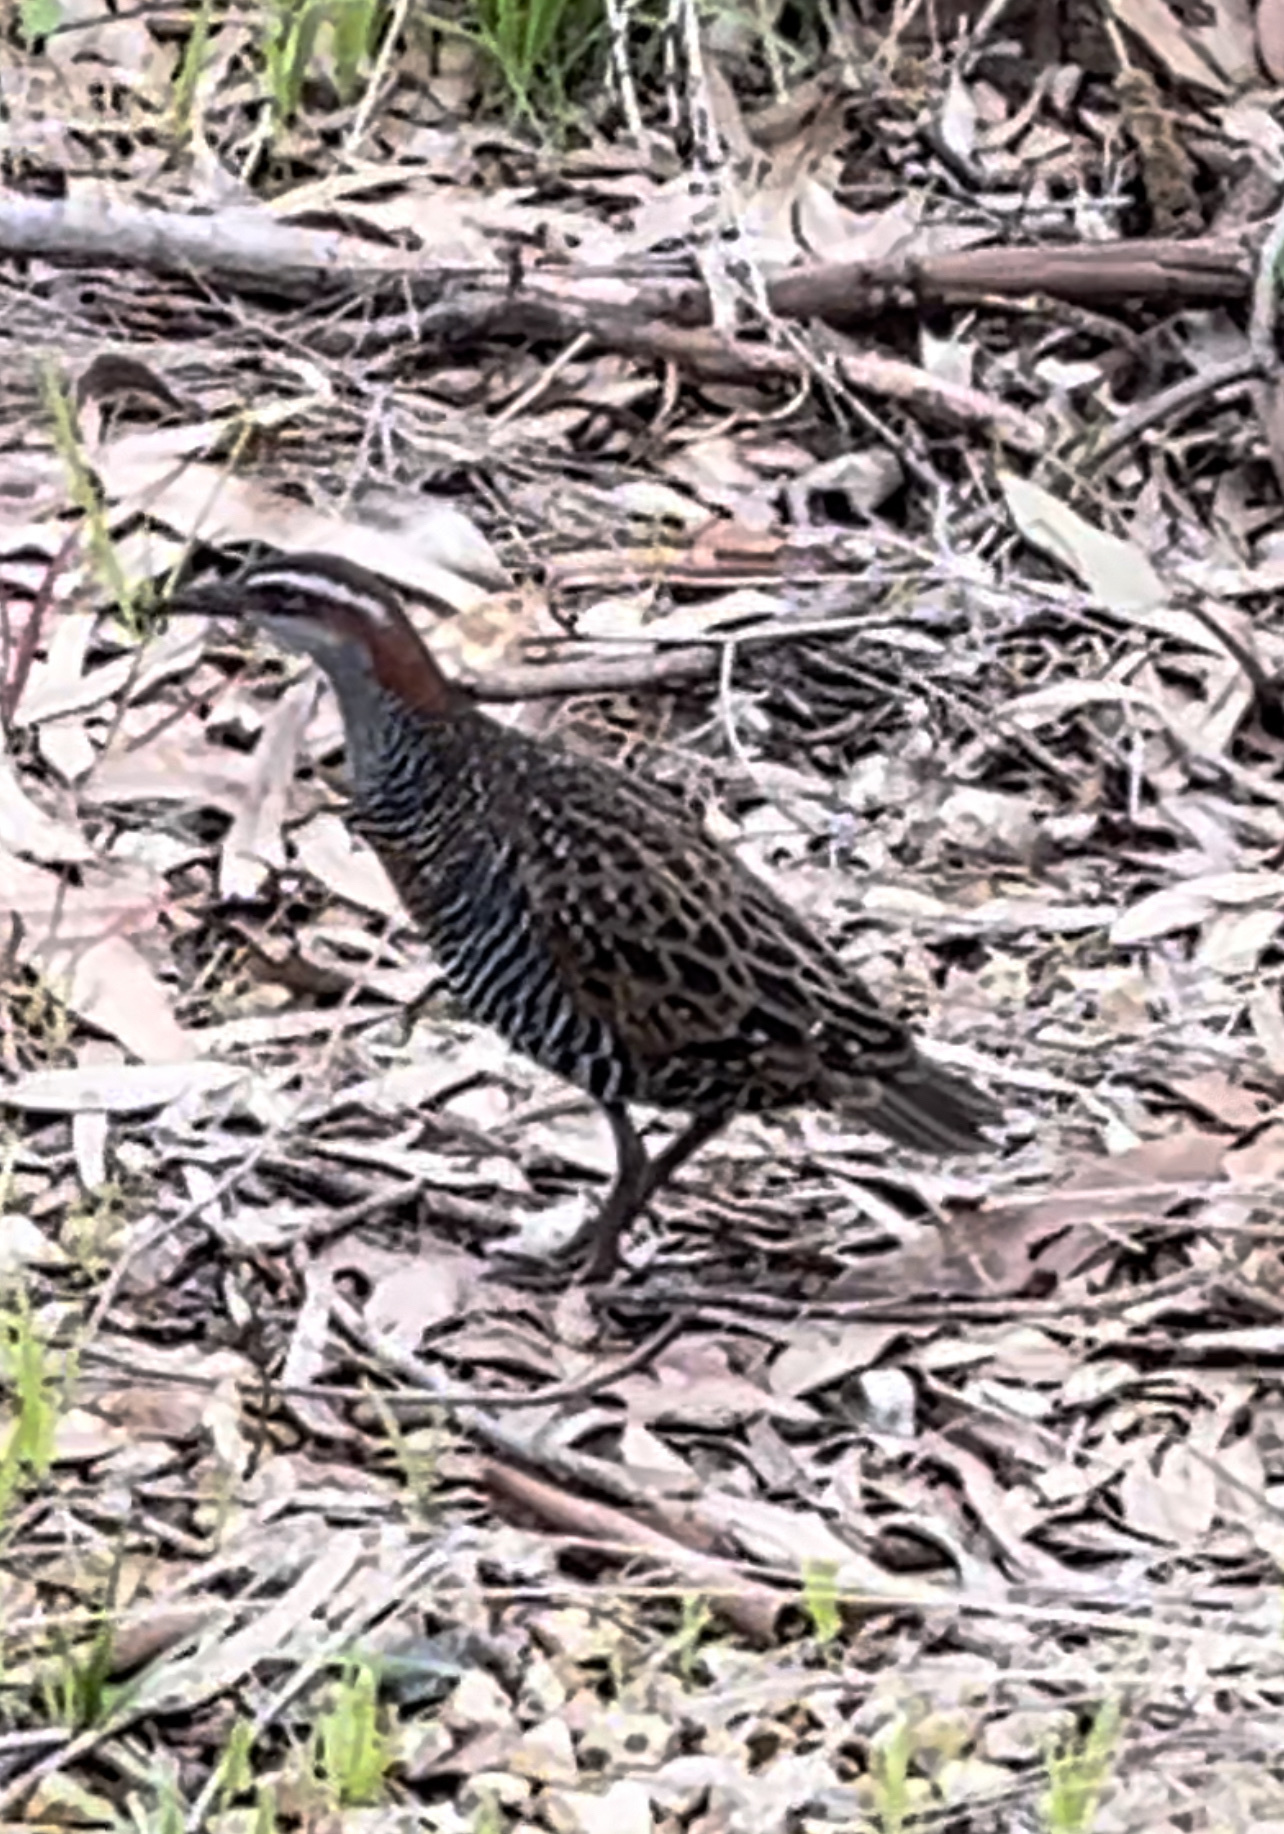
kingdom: Animalia
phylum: Chordata
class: Aves
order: Gruiformes
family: Rallidae
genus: Gallirallus
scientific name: Gallirallus philippensis
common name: Buff-banded rail
